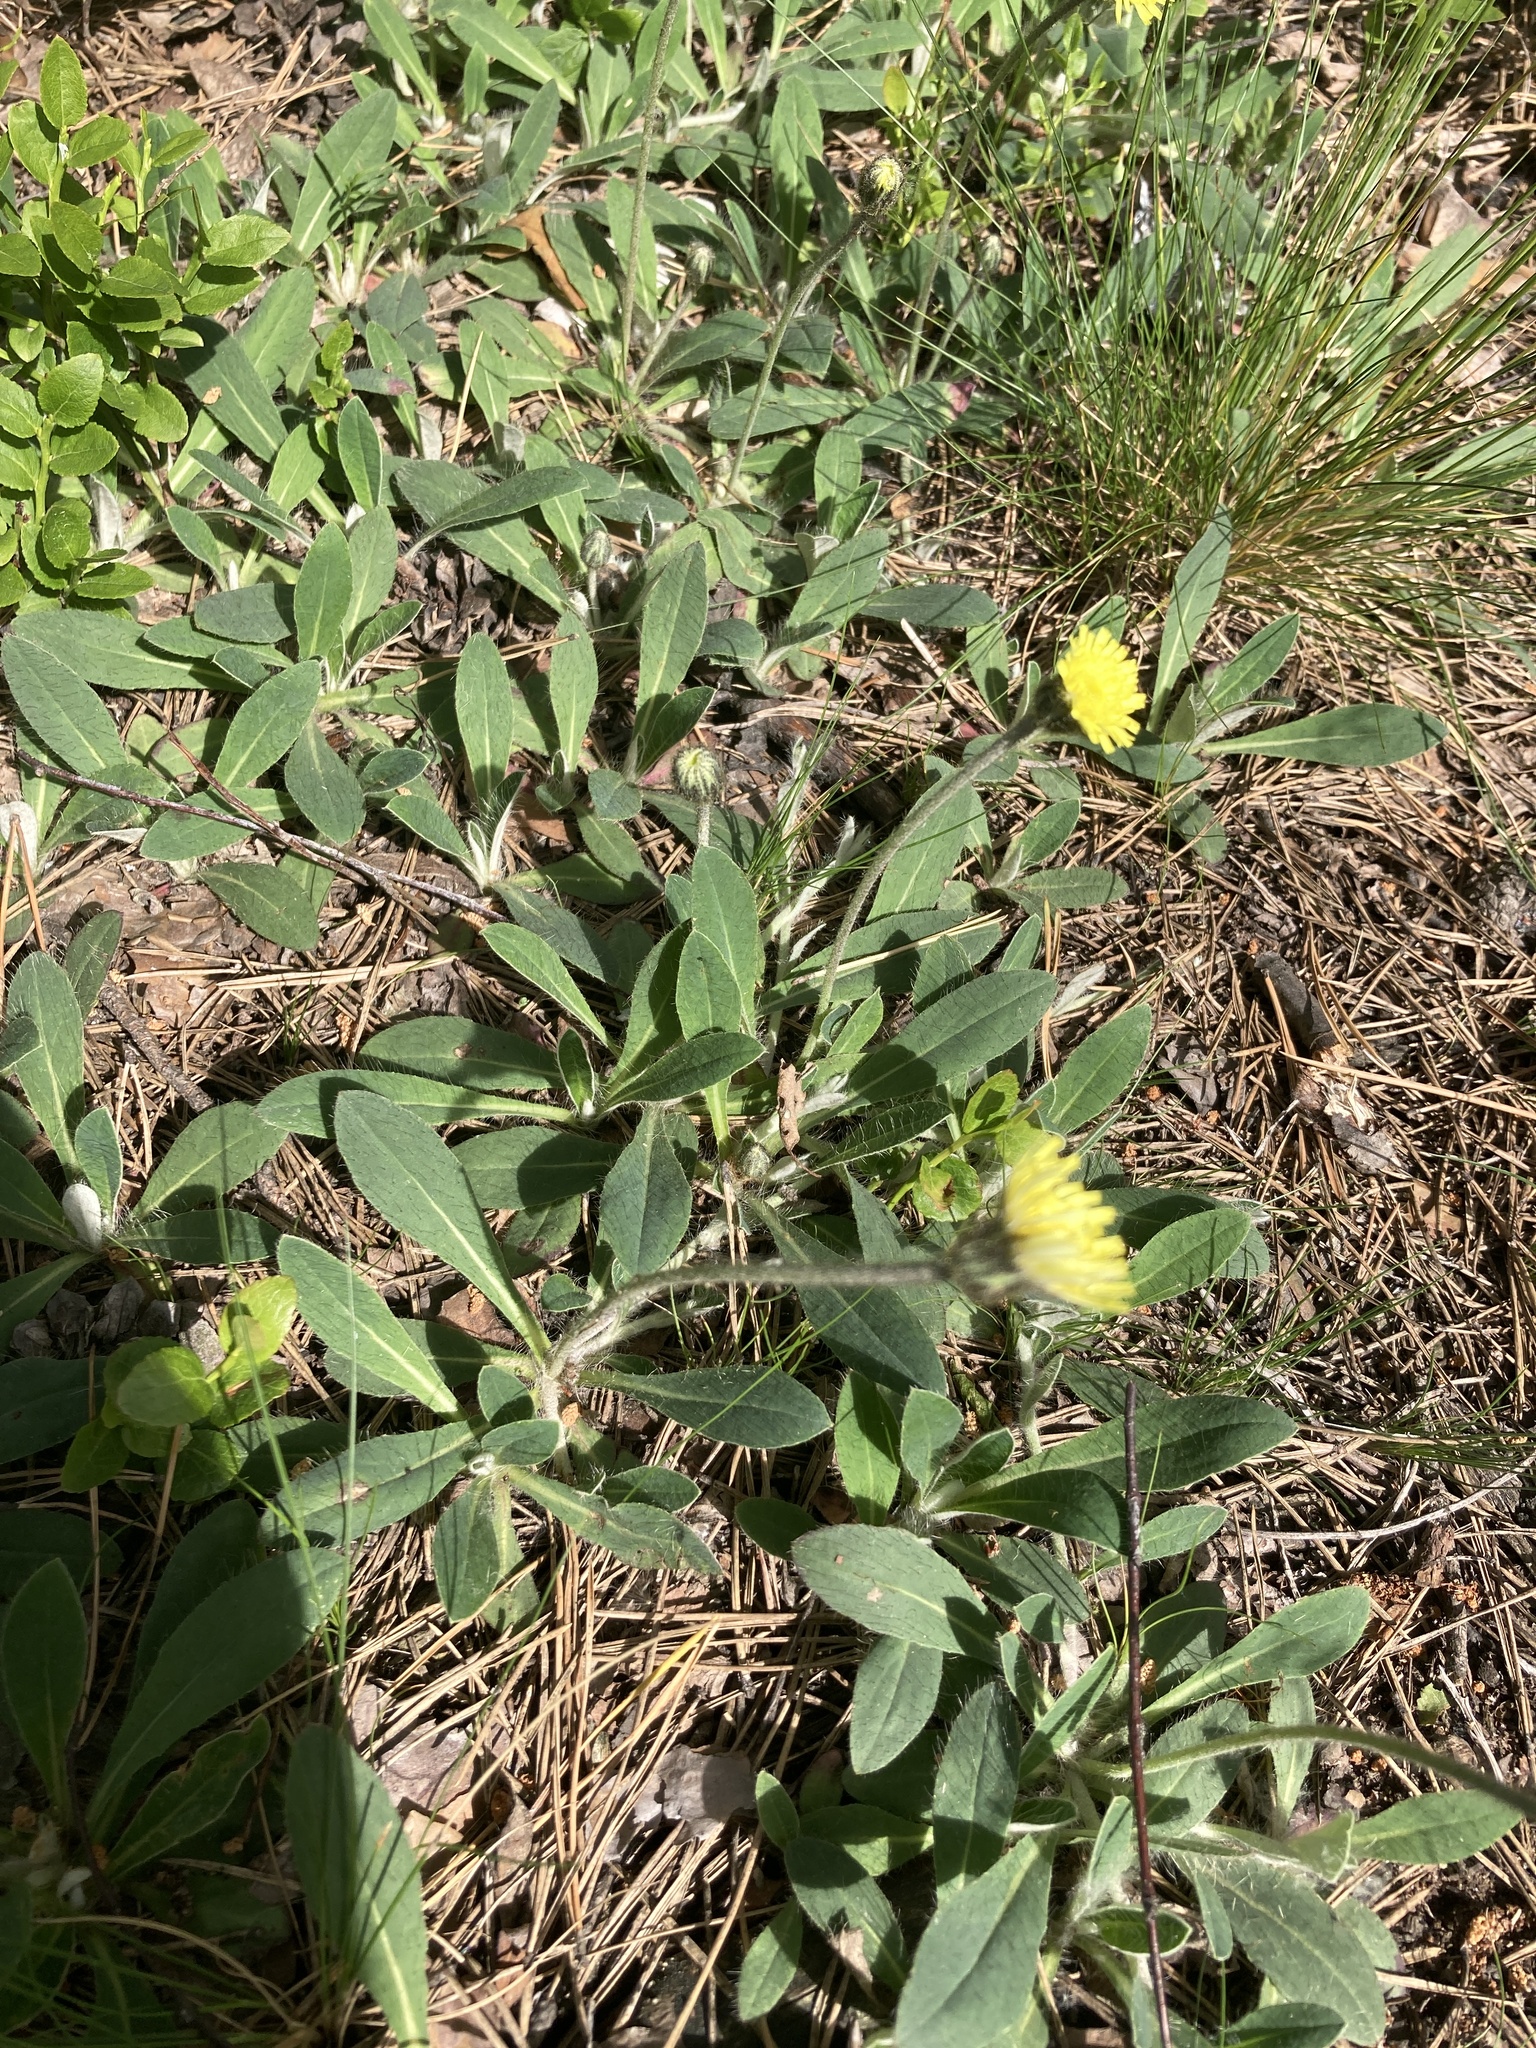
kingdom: Plantae
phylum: Tracheophyta
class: Magnoliopsida
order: Asterales
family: Asteraceae
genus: Pilosella
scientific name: Pilosella officinarum
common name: Mouse-ear hawkweed
